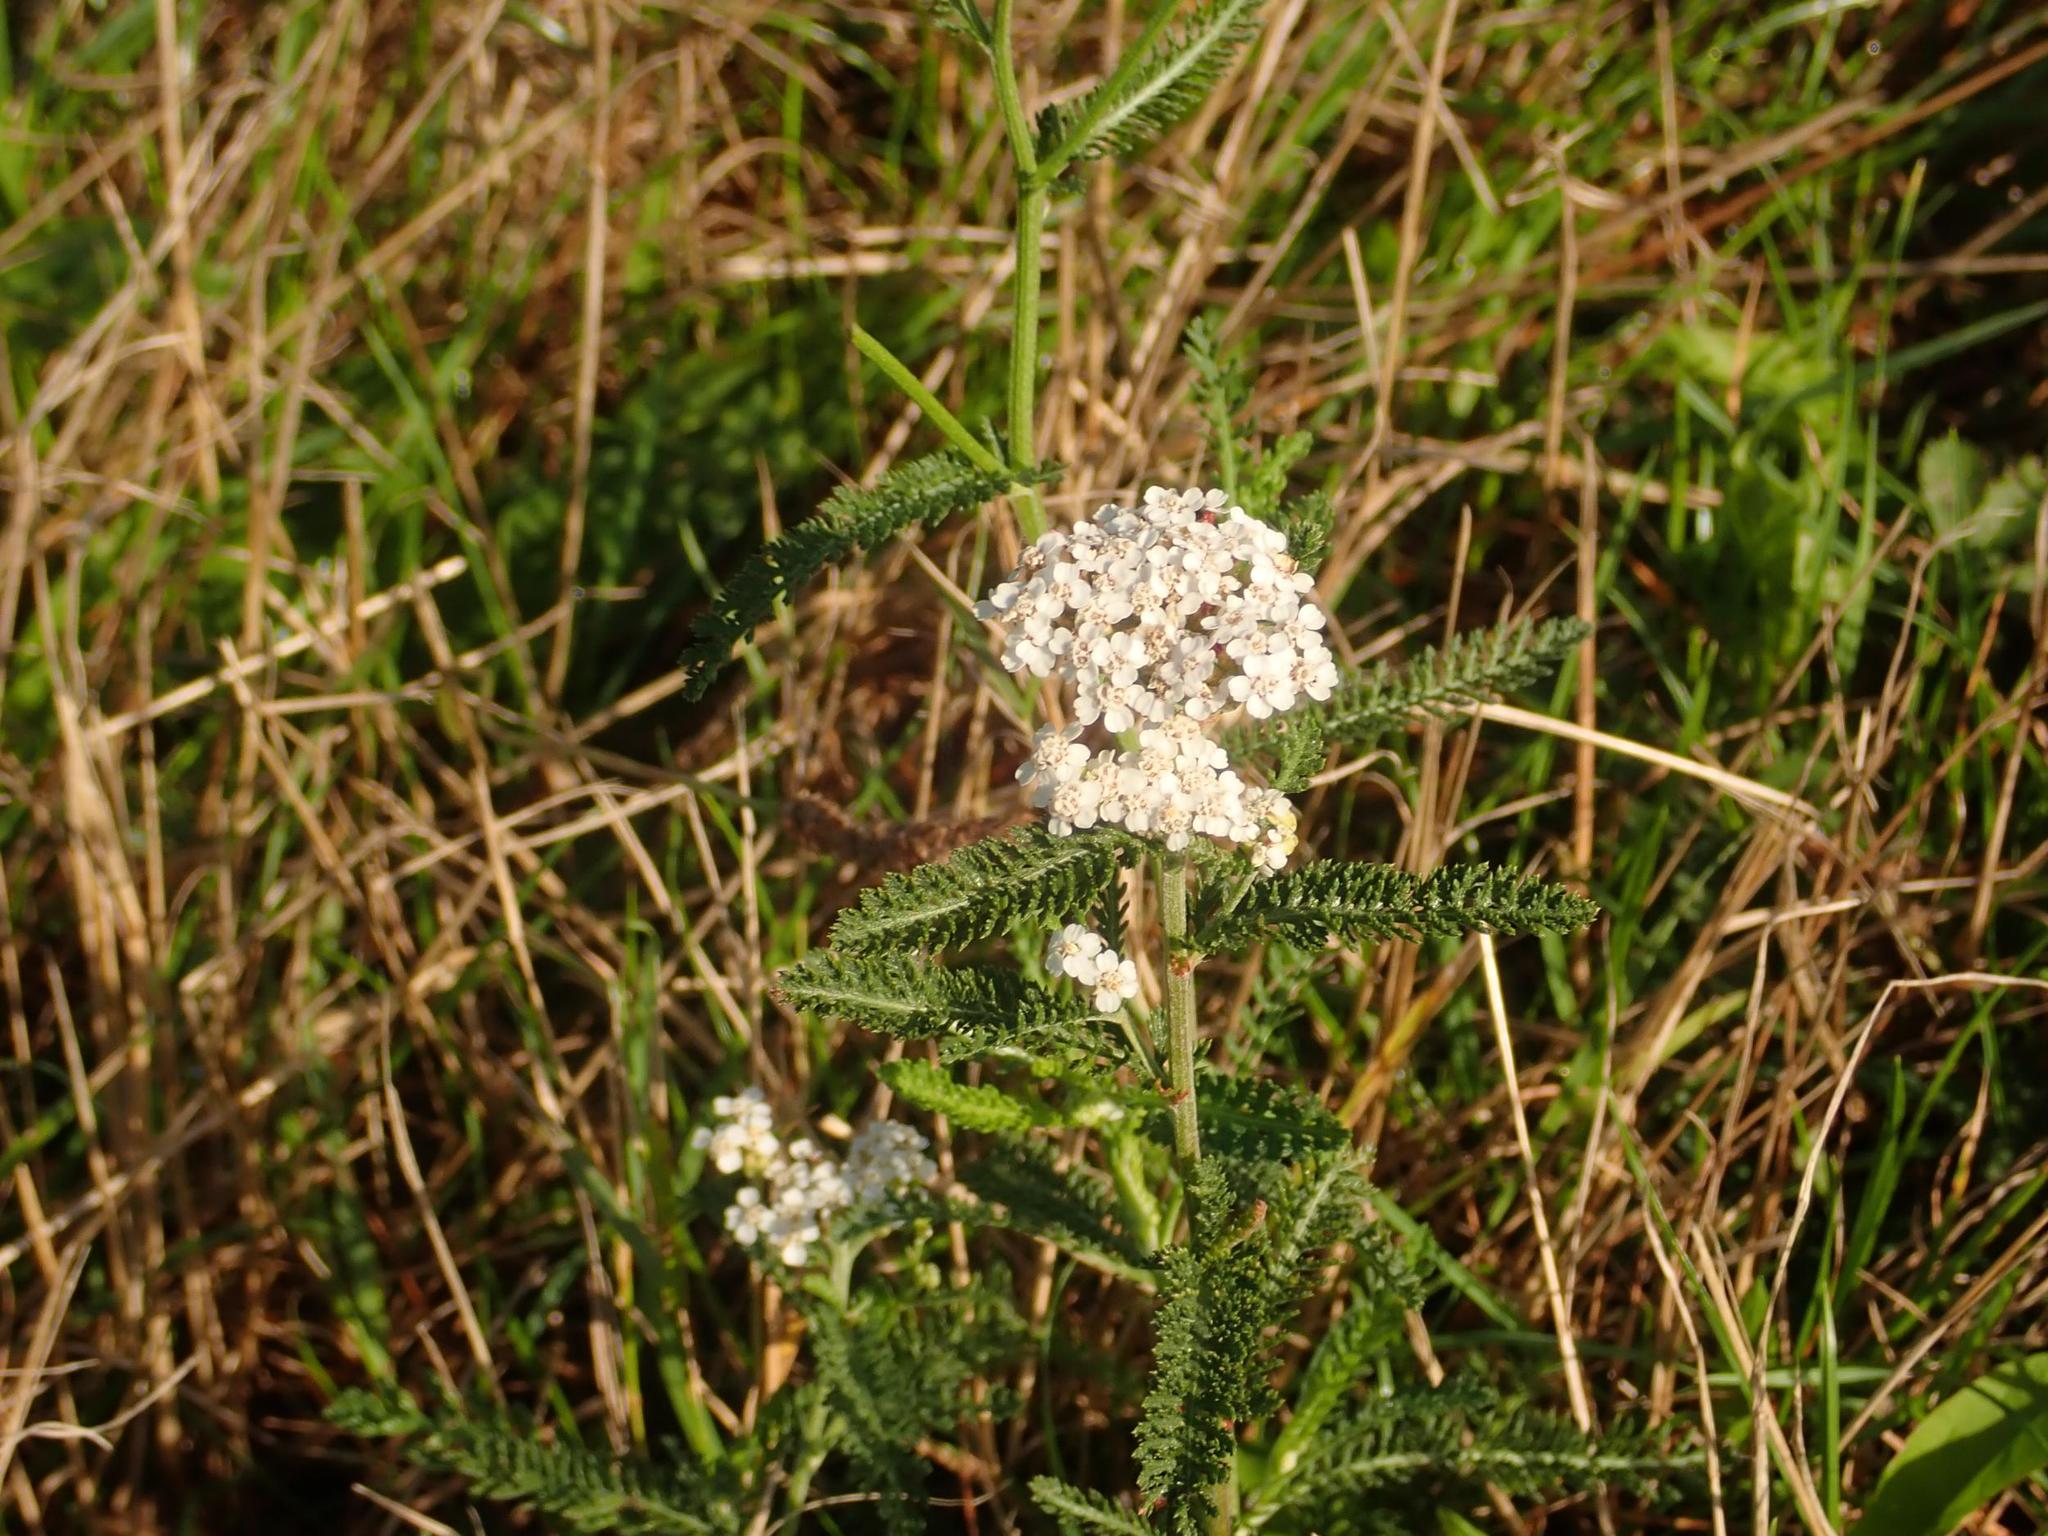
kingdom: Plantae
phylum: Tracheophyta
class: Magnoliopsida
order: Asterales
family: Asteraceae
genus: Achillea
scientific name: Achillea millefolium
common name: Yarrow
